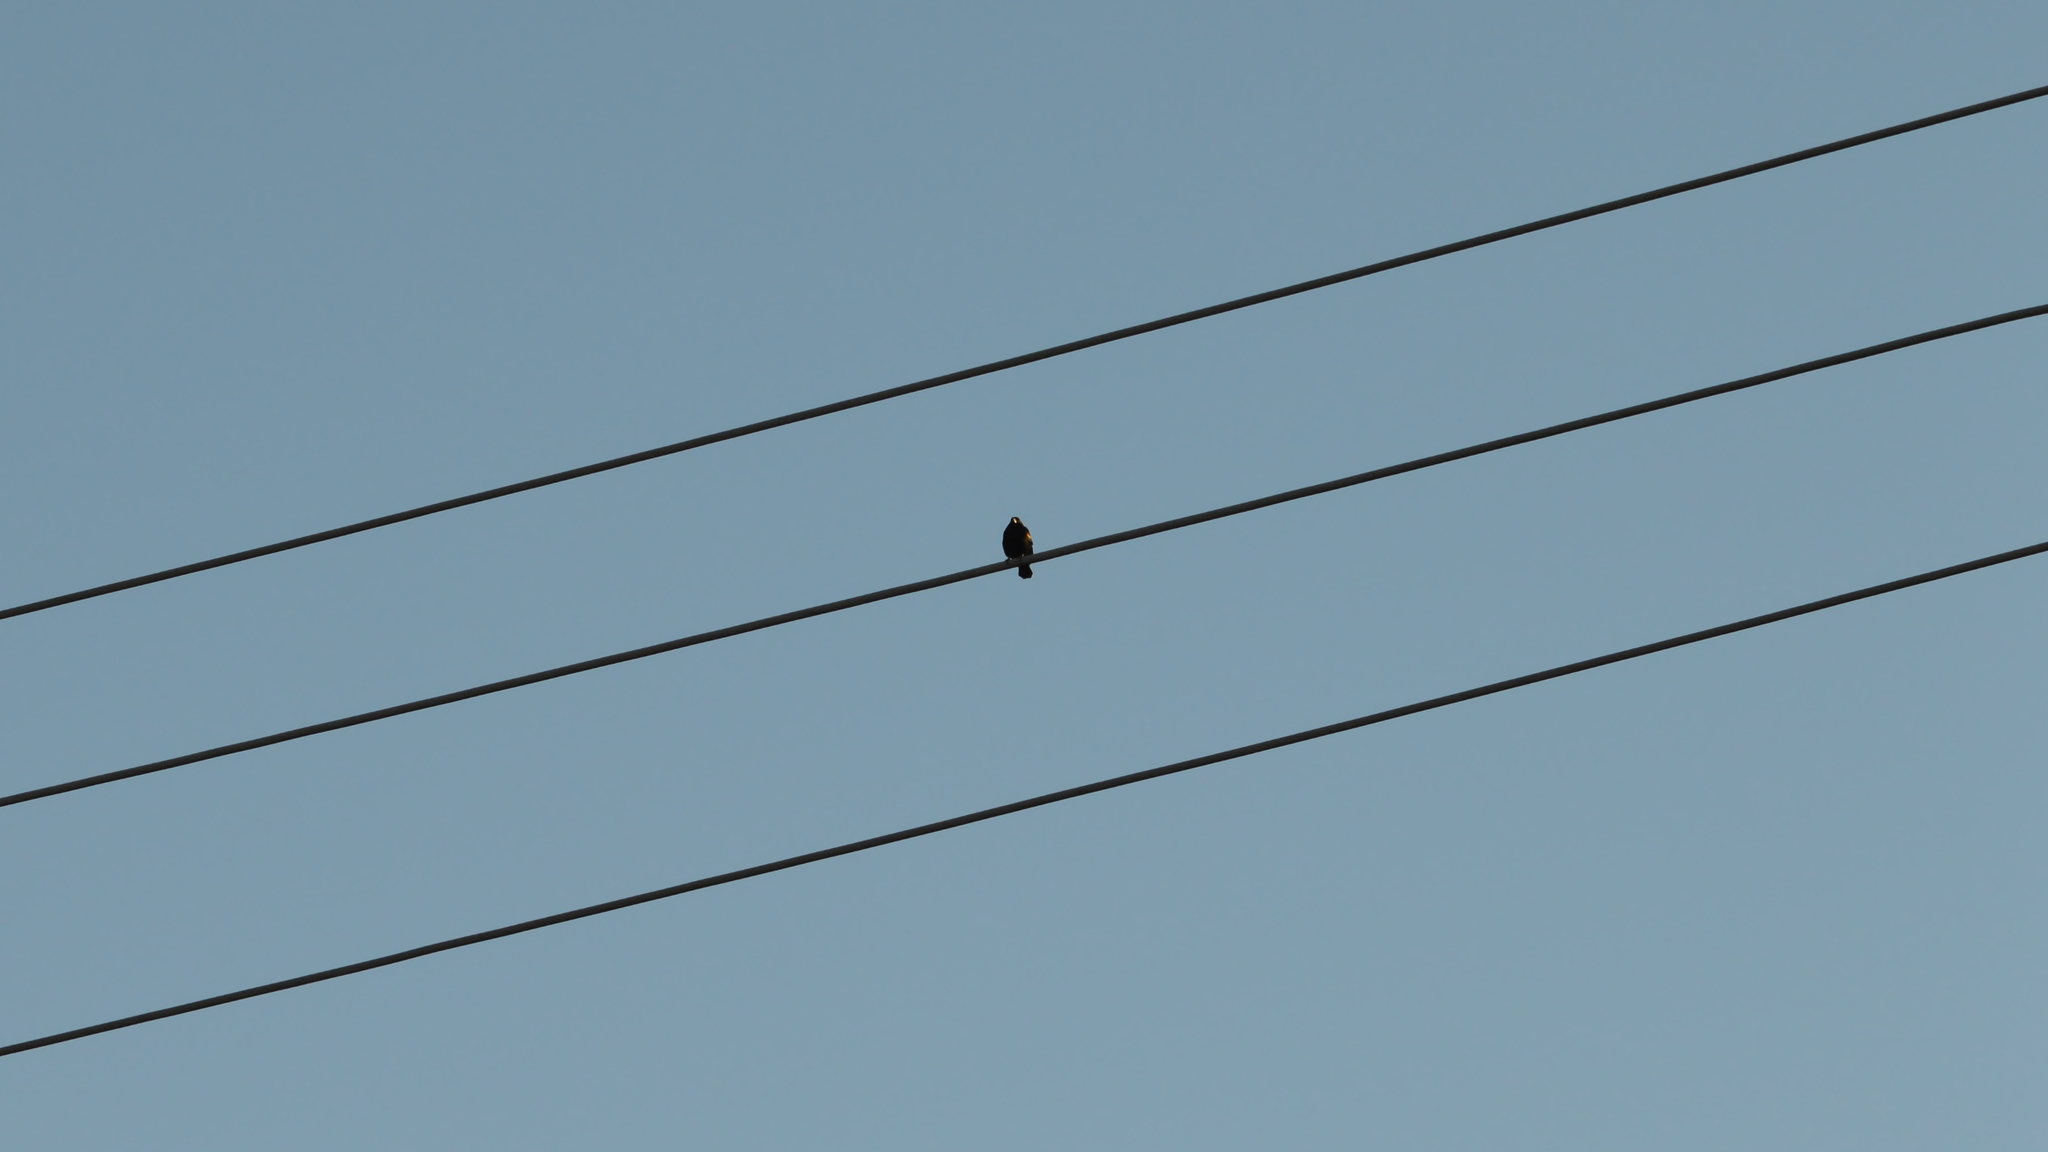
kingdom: Animalia
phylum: Chordata
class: Aves
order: Passeriformes
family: Icteridae
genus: Agelaius
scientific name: Agelaius phoeniceus
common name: Red-winged blackbird
